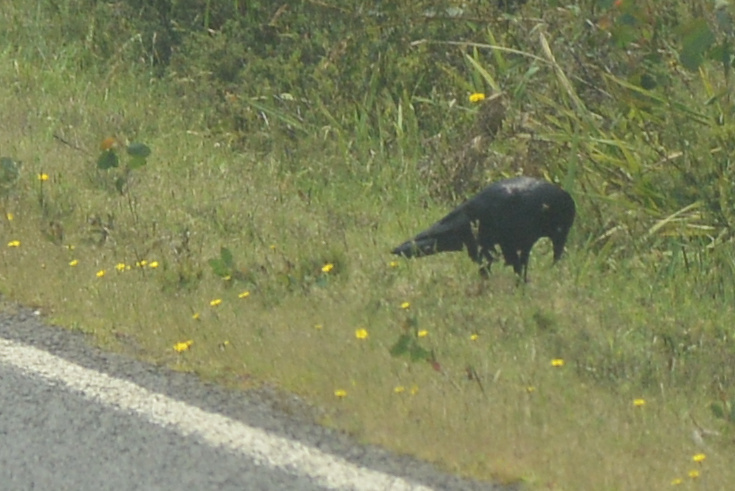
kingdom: Animalia
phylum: Chordata
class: Aves
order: Passeriformes
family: Corvidae
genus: Corvus
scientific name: Corvus tasmanicus
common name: Forest raven
